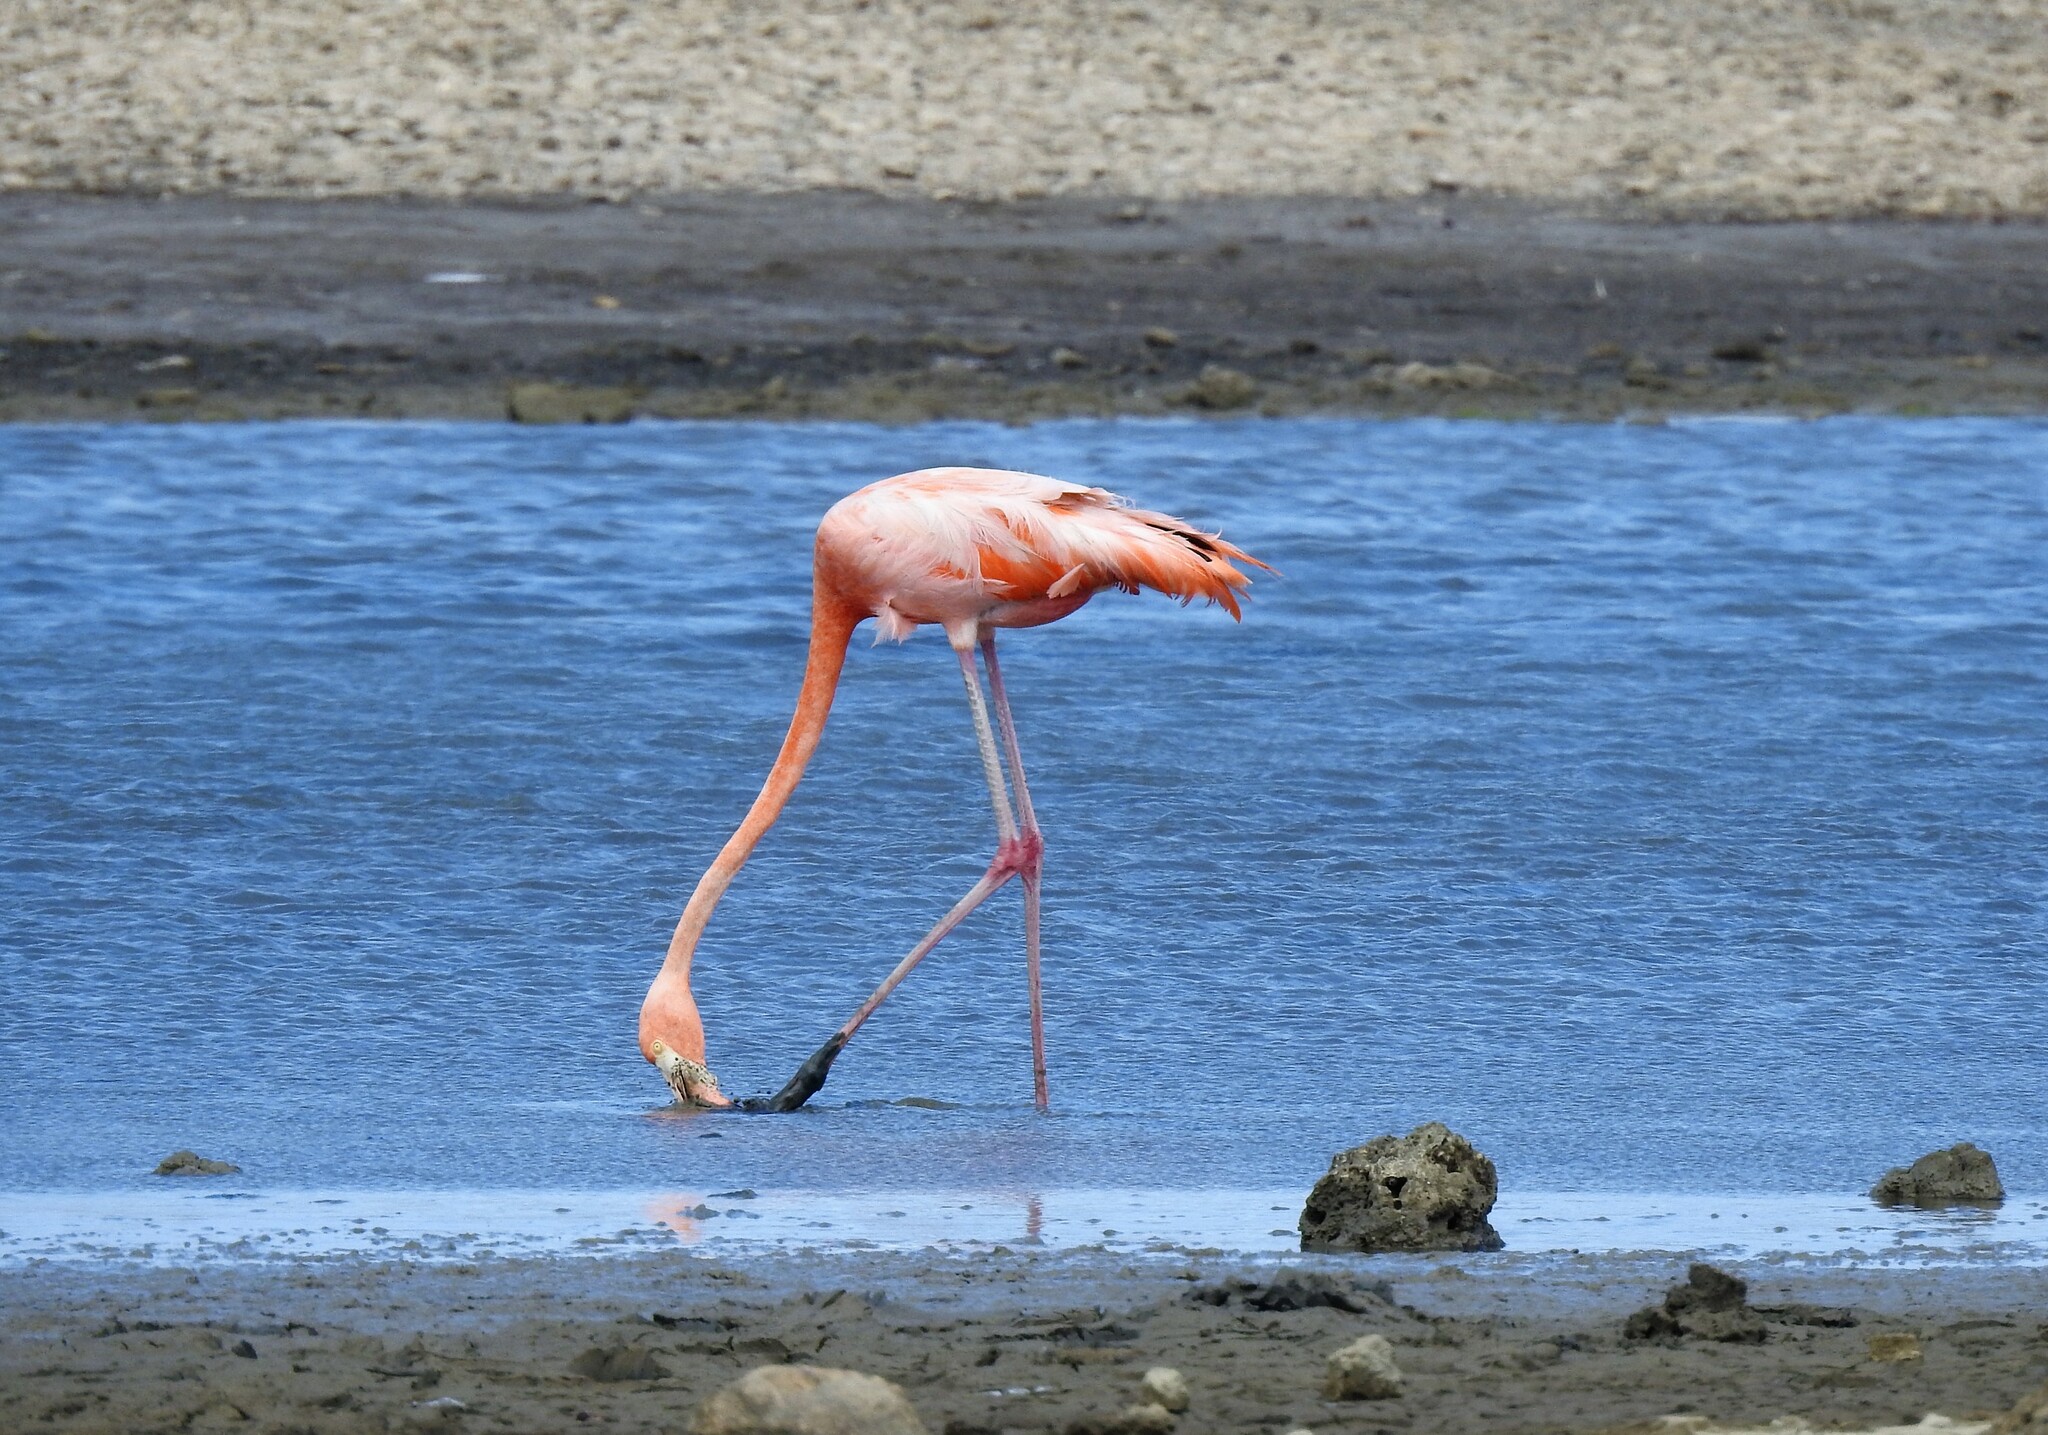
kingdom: Animalia
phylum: Chordata
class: Aves
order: Phoenicopteriformes
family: Phoenicopteridae
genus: Phoenicopterus
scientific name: Phoenicopterus ruber
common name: American flamingo
